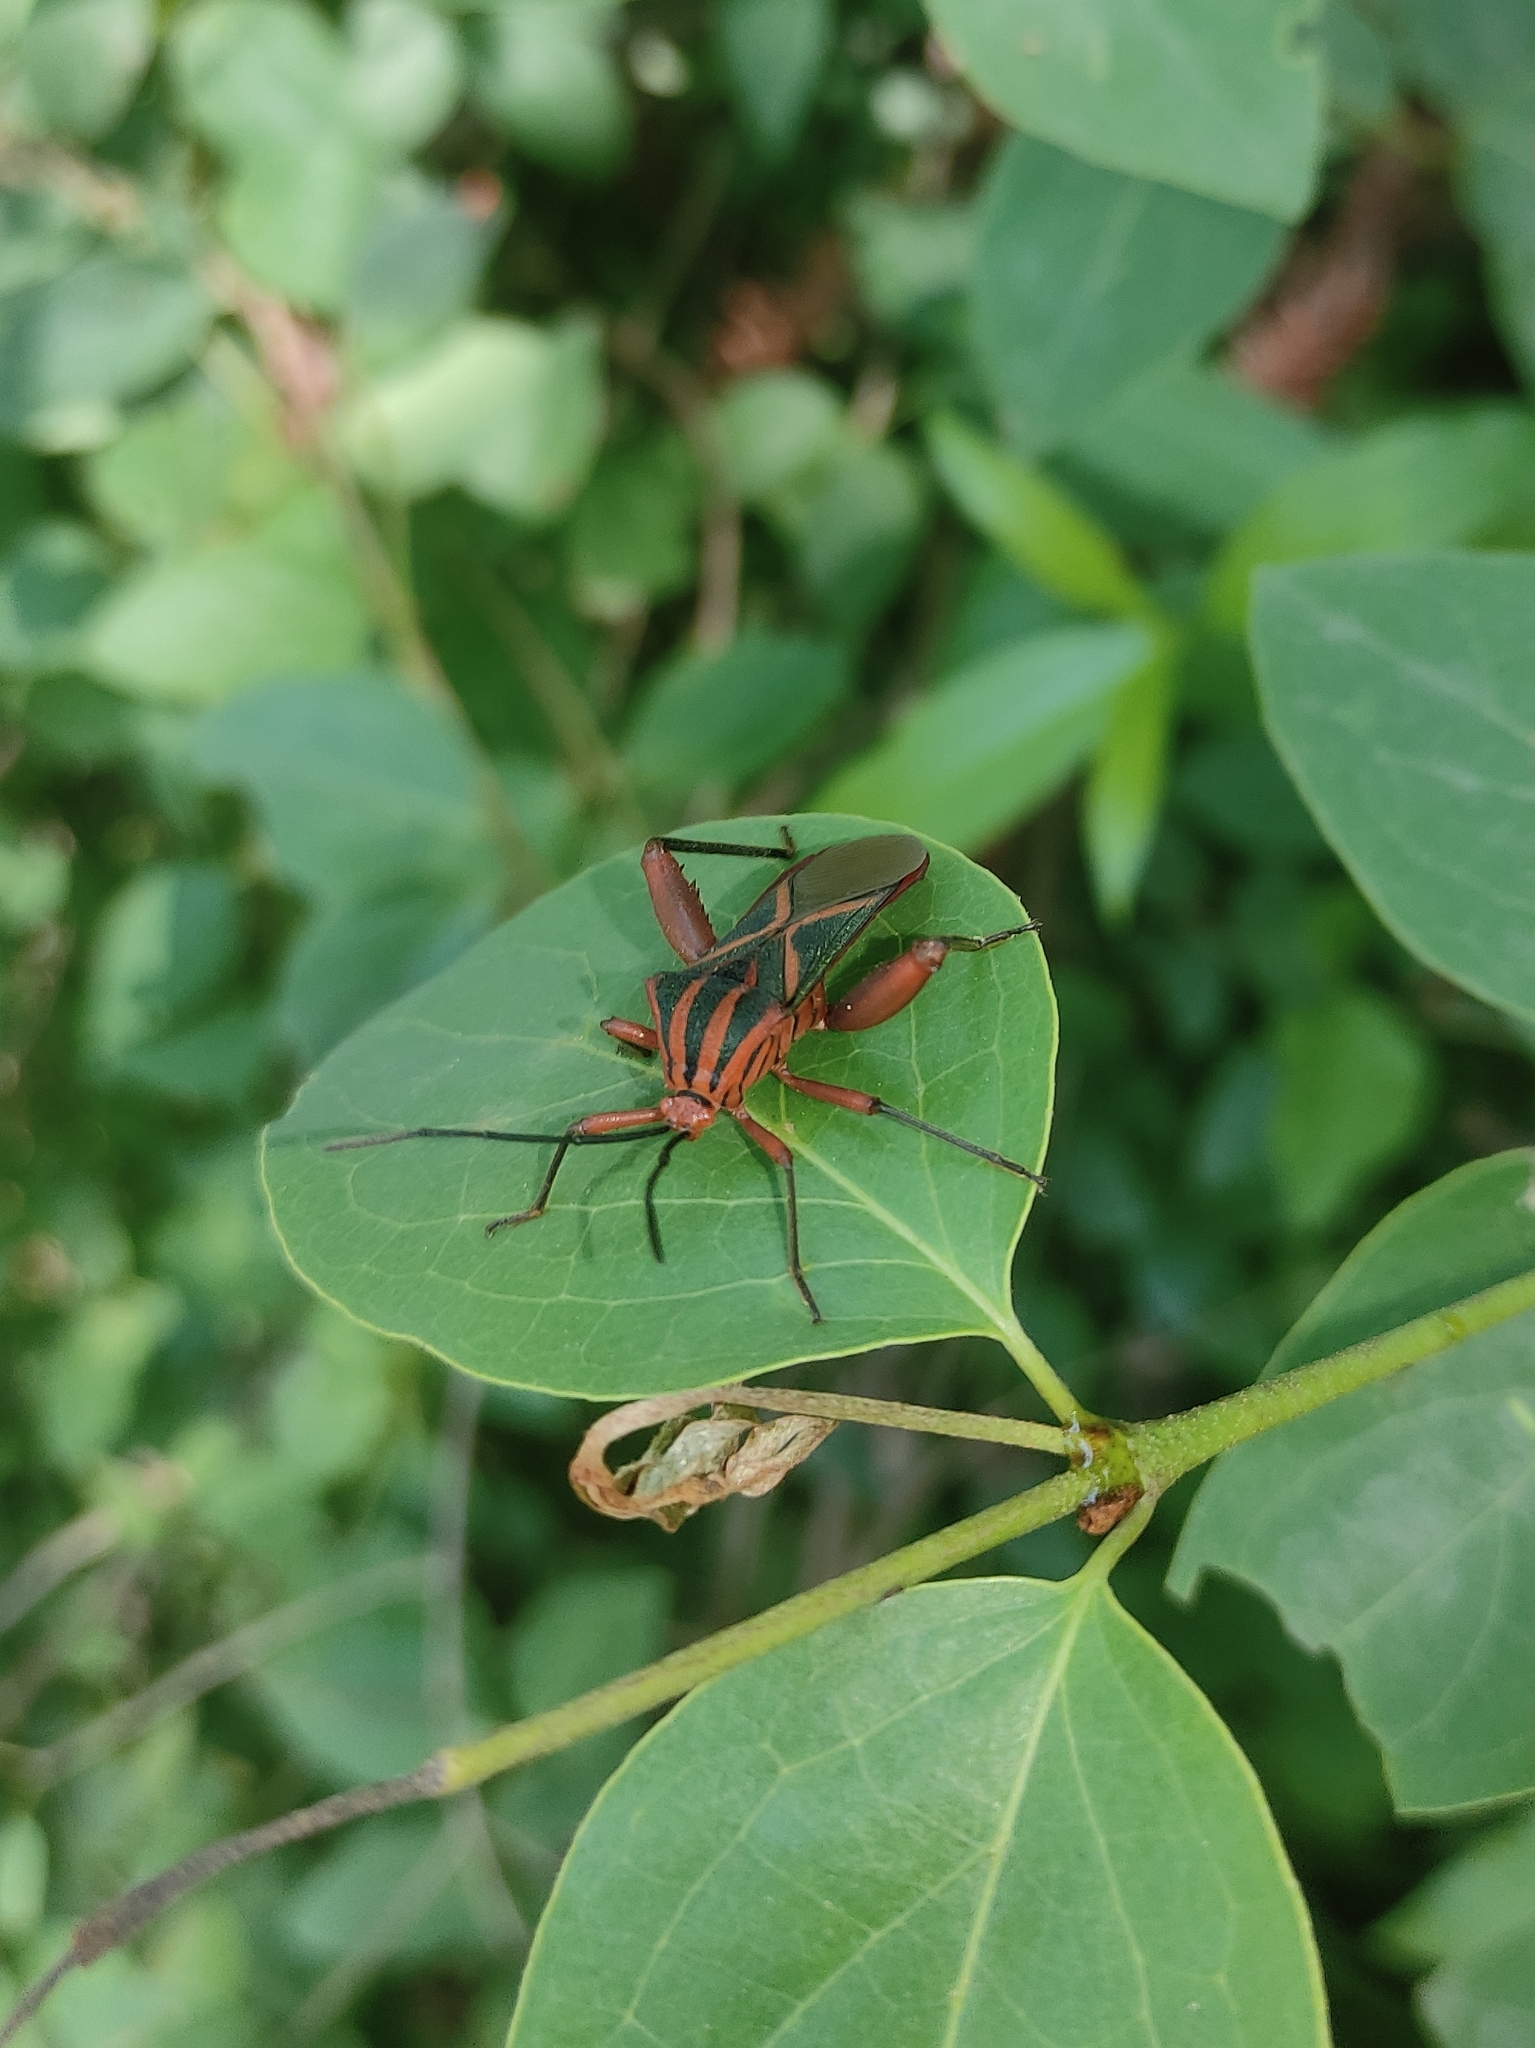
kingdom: Animalia
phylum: Arthropoda
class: Insecta
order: Hemiptera
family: Coreidae
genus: Machtima
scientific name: Machtima crucigera
